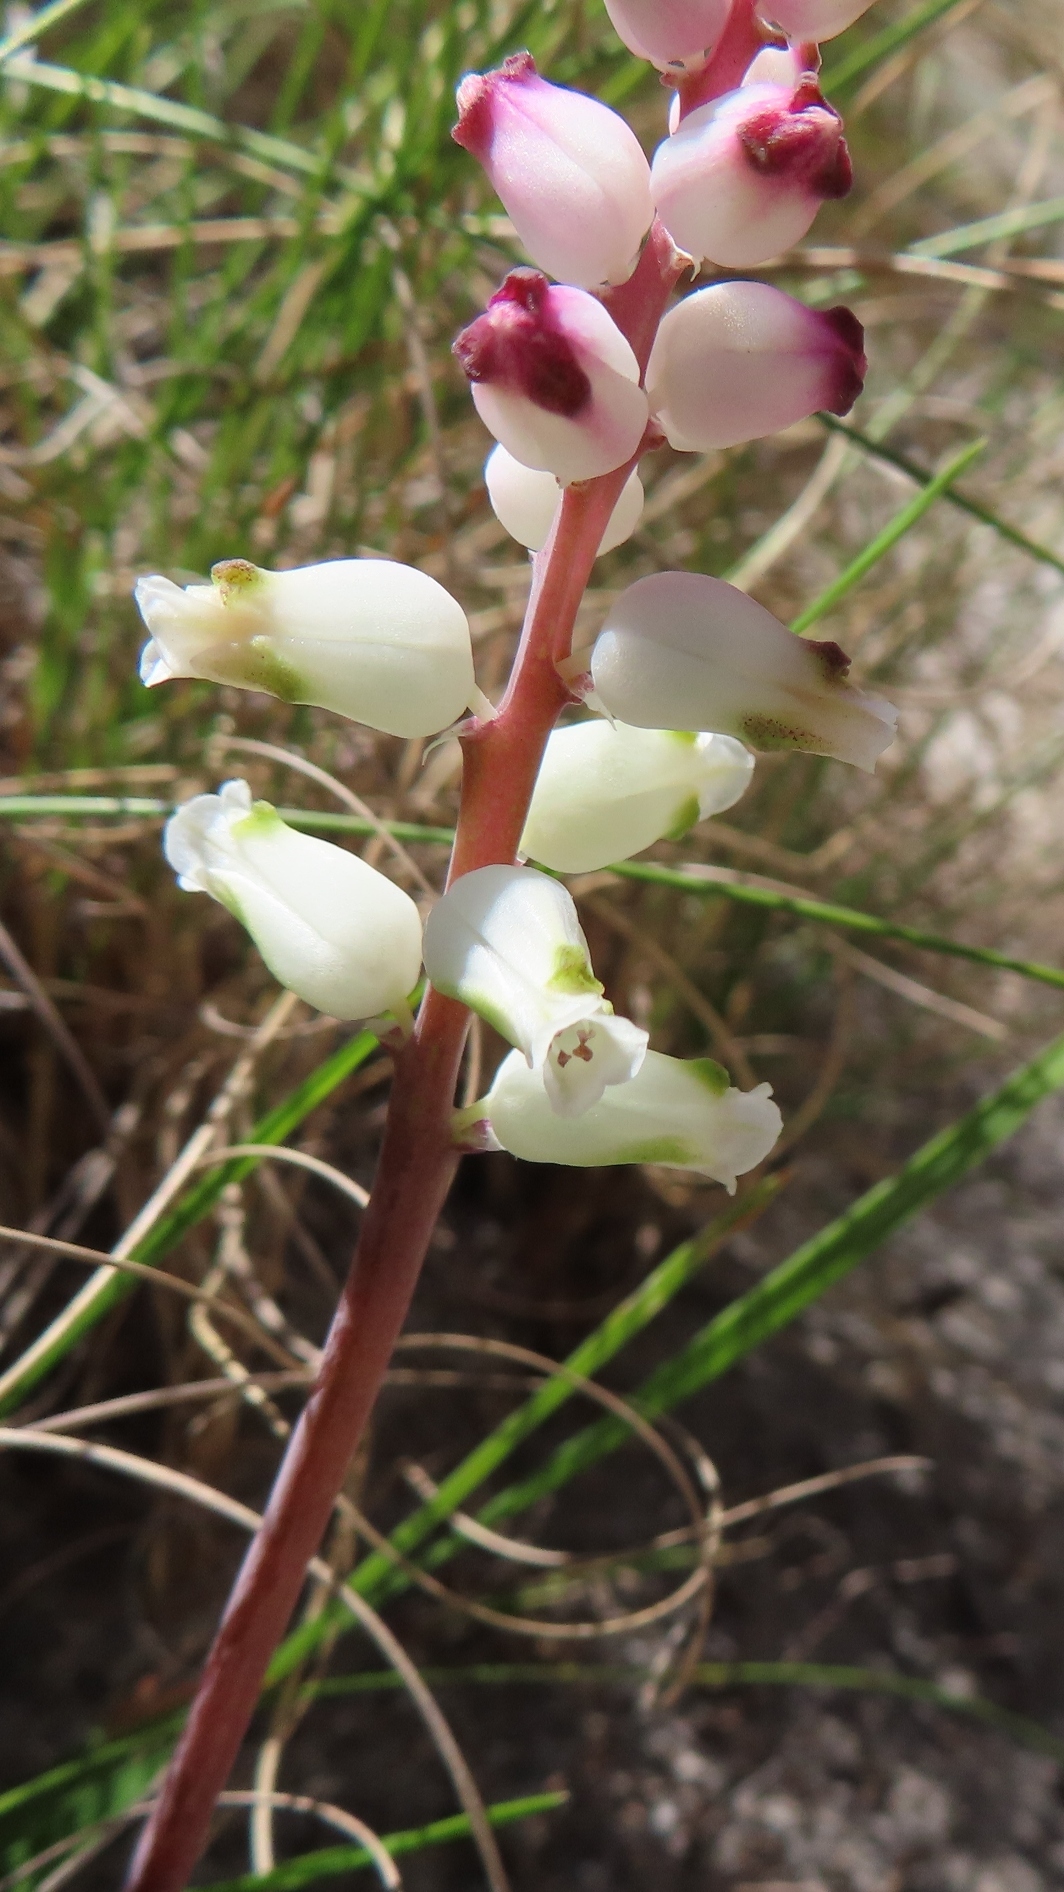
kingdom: Plantae
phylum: Tracheophyta
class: Liliopsida
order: Asparagales
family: Asparagaceae
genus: Lachenalia
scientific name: Lachenalia peersii
